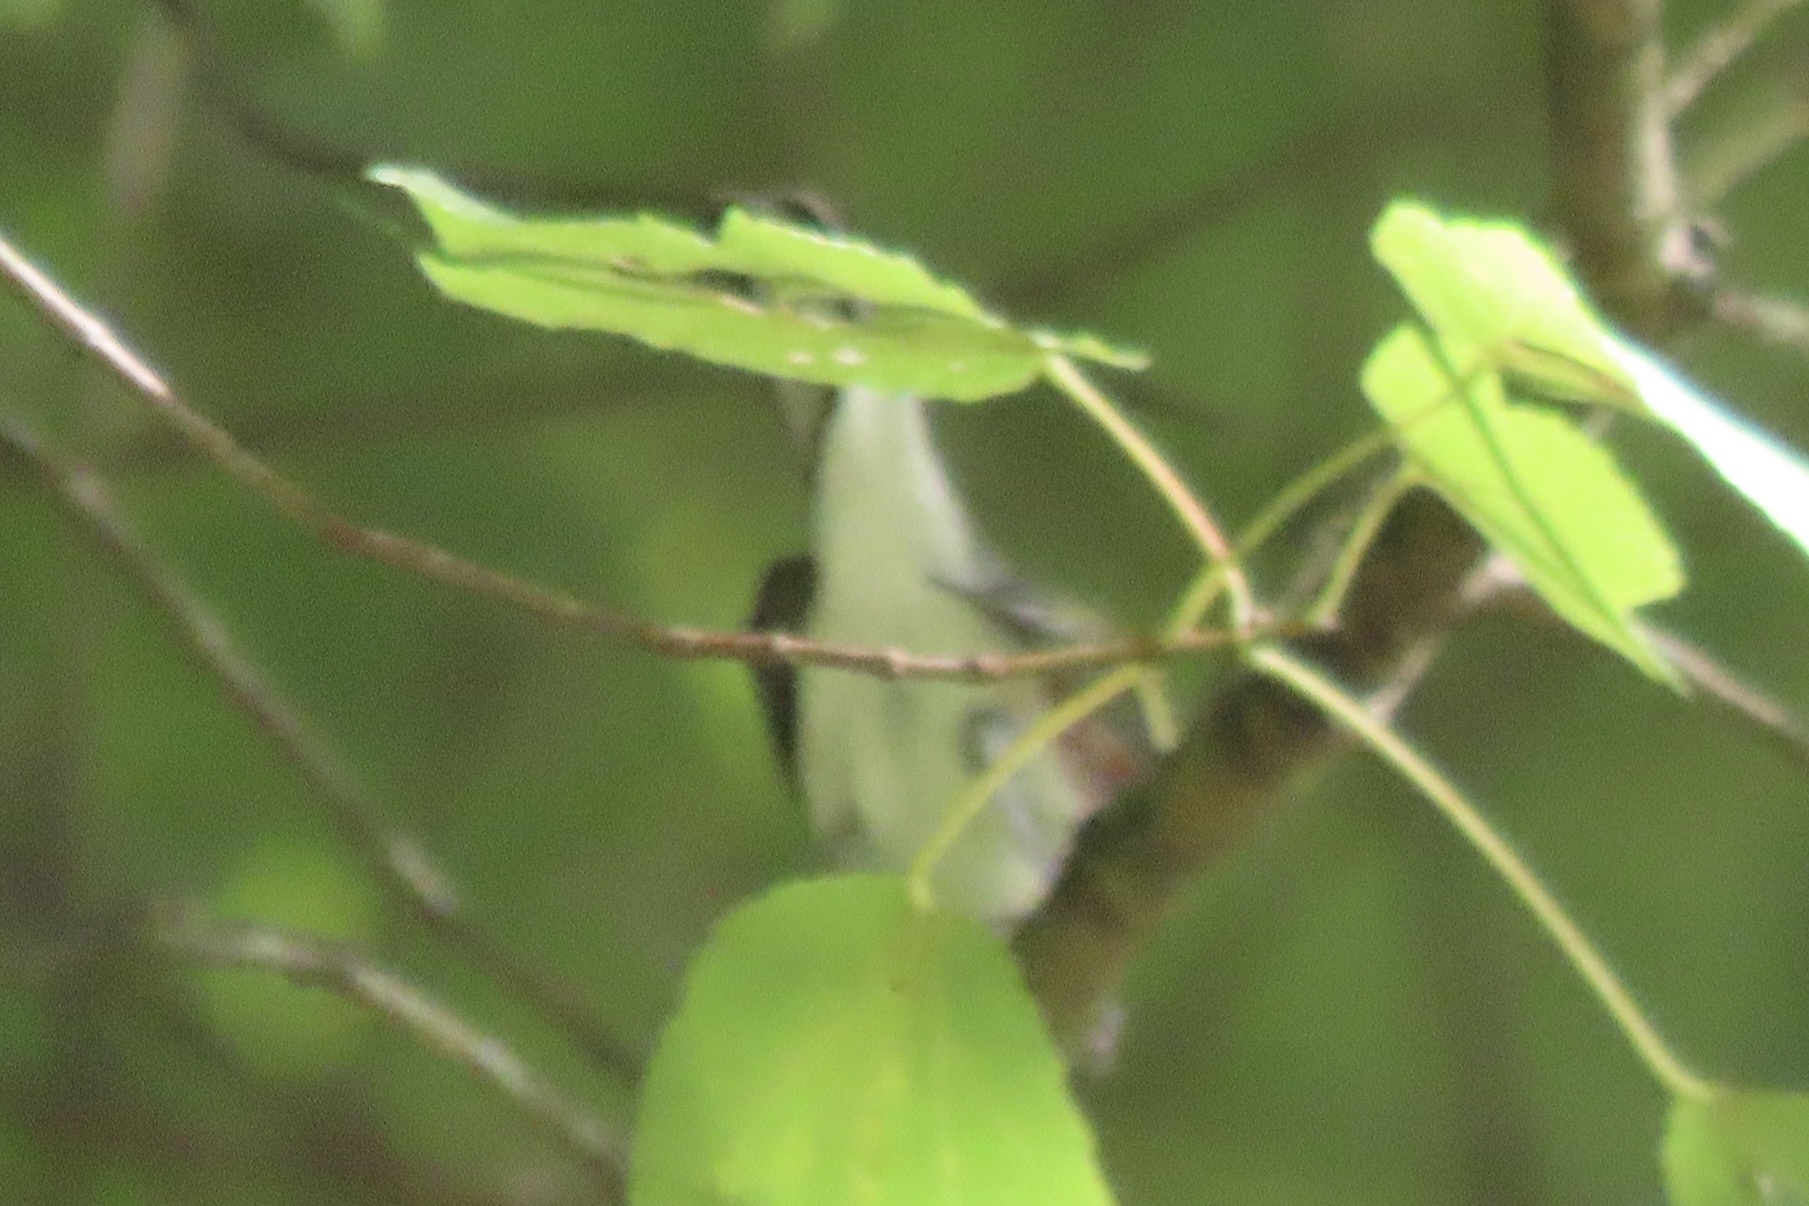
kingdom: Animalia
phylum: Chordata
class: Aves
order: Passeriformes
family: Parulidae
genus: Setophaga
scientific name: Setophaga pensylvanica
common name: Chestnut-sided warbler
